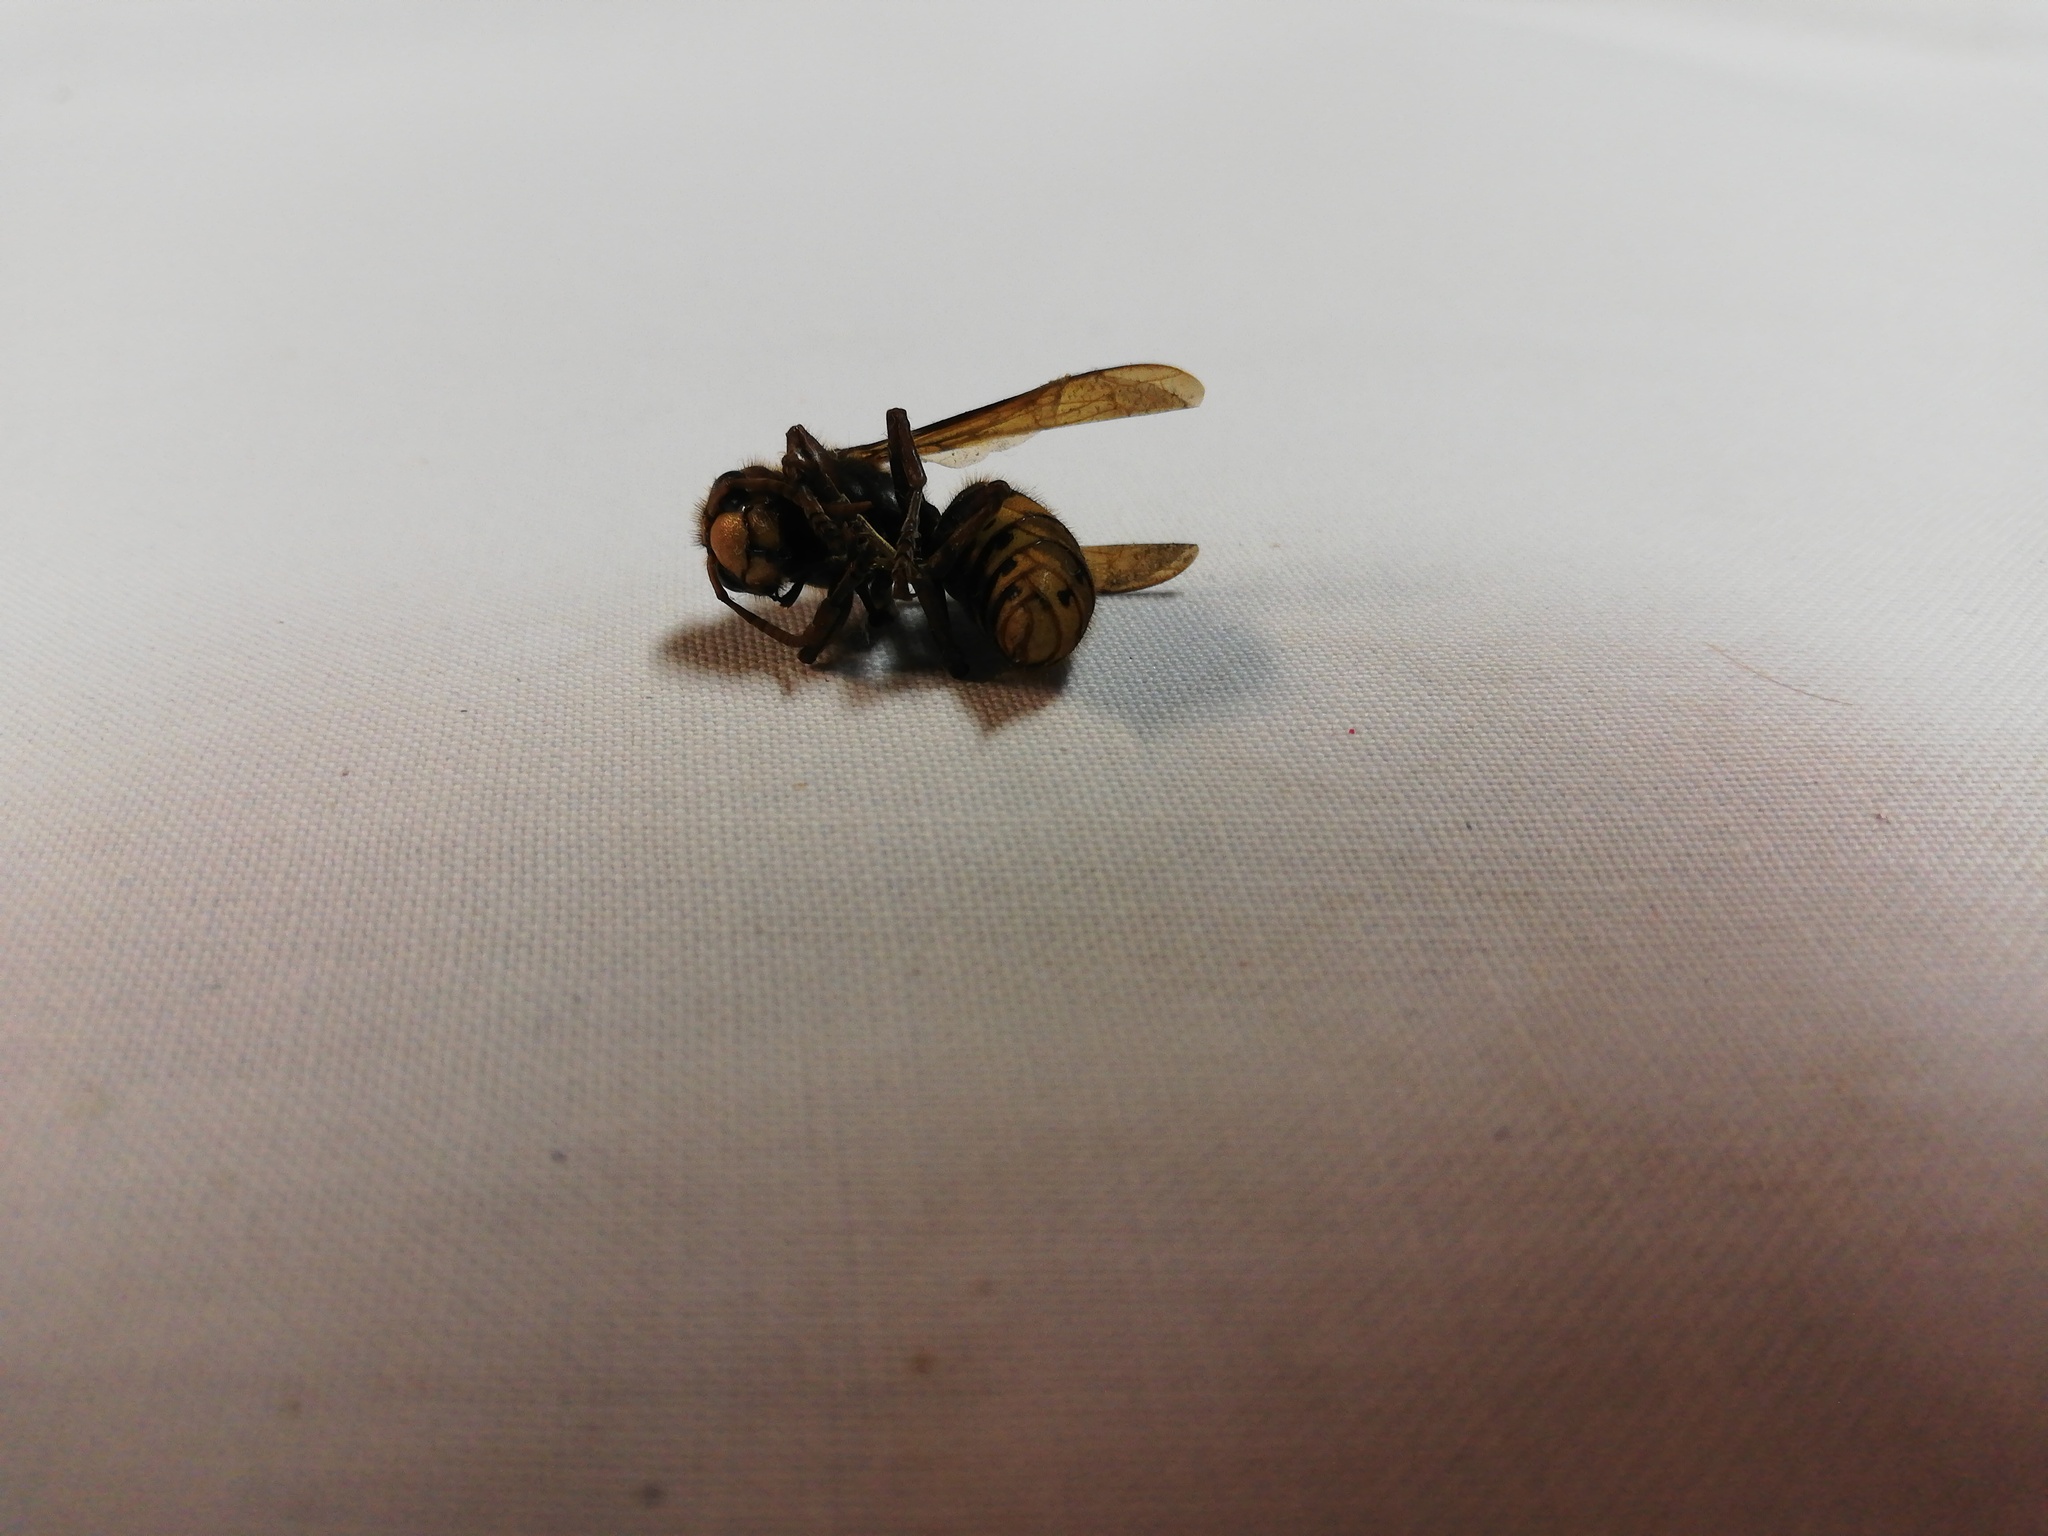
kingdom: Animalia
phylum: Arthropoda
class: Insecta
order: Hymenoptera
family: Vespidae
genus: Vespa
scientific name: Vespa crabro
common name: Hornet
